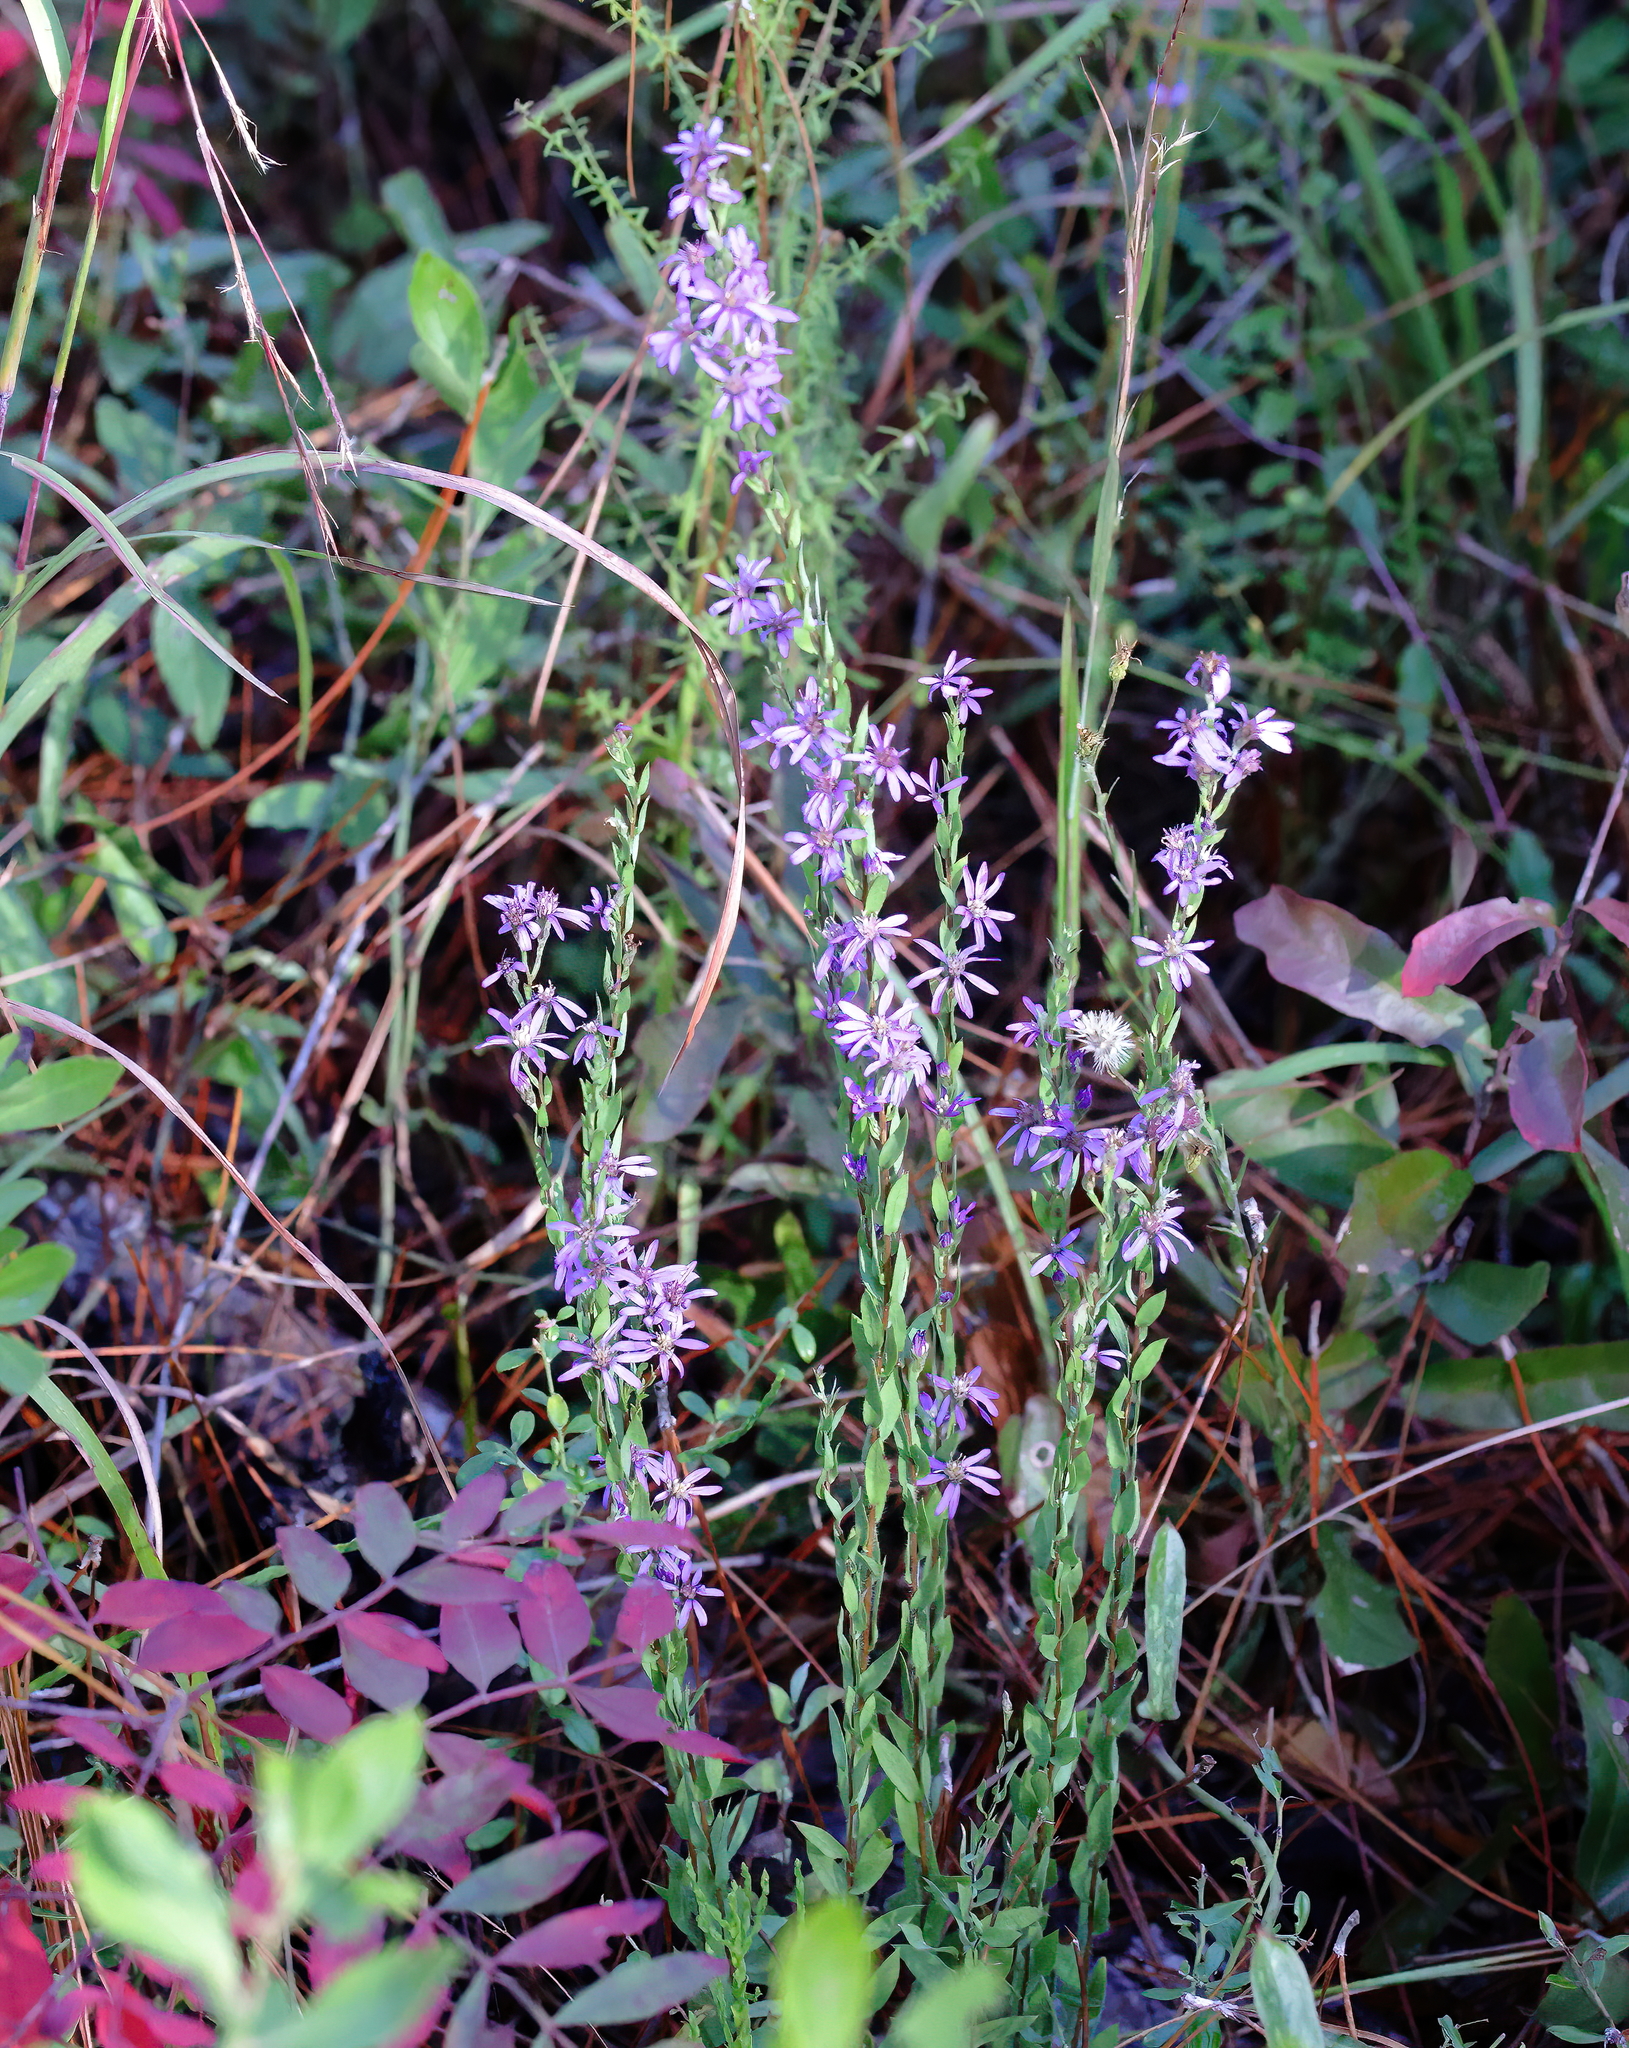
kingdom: Plantae
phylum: Tracheophyta
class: Magnoliopsida
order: Asterales
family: Asteraceae
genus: Symphyotrichum
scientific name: Symphyotrichum concolor
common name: Eastern silver aster
